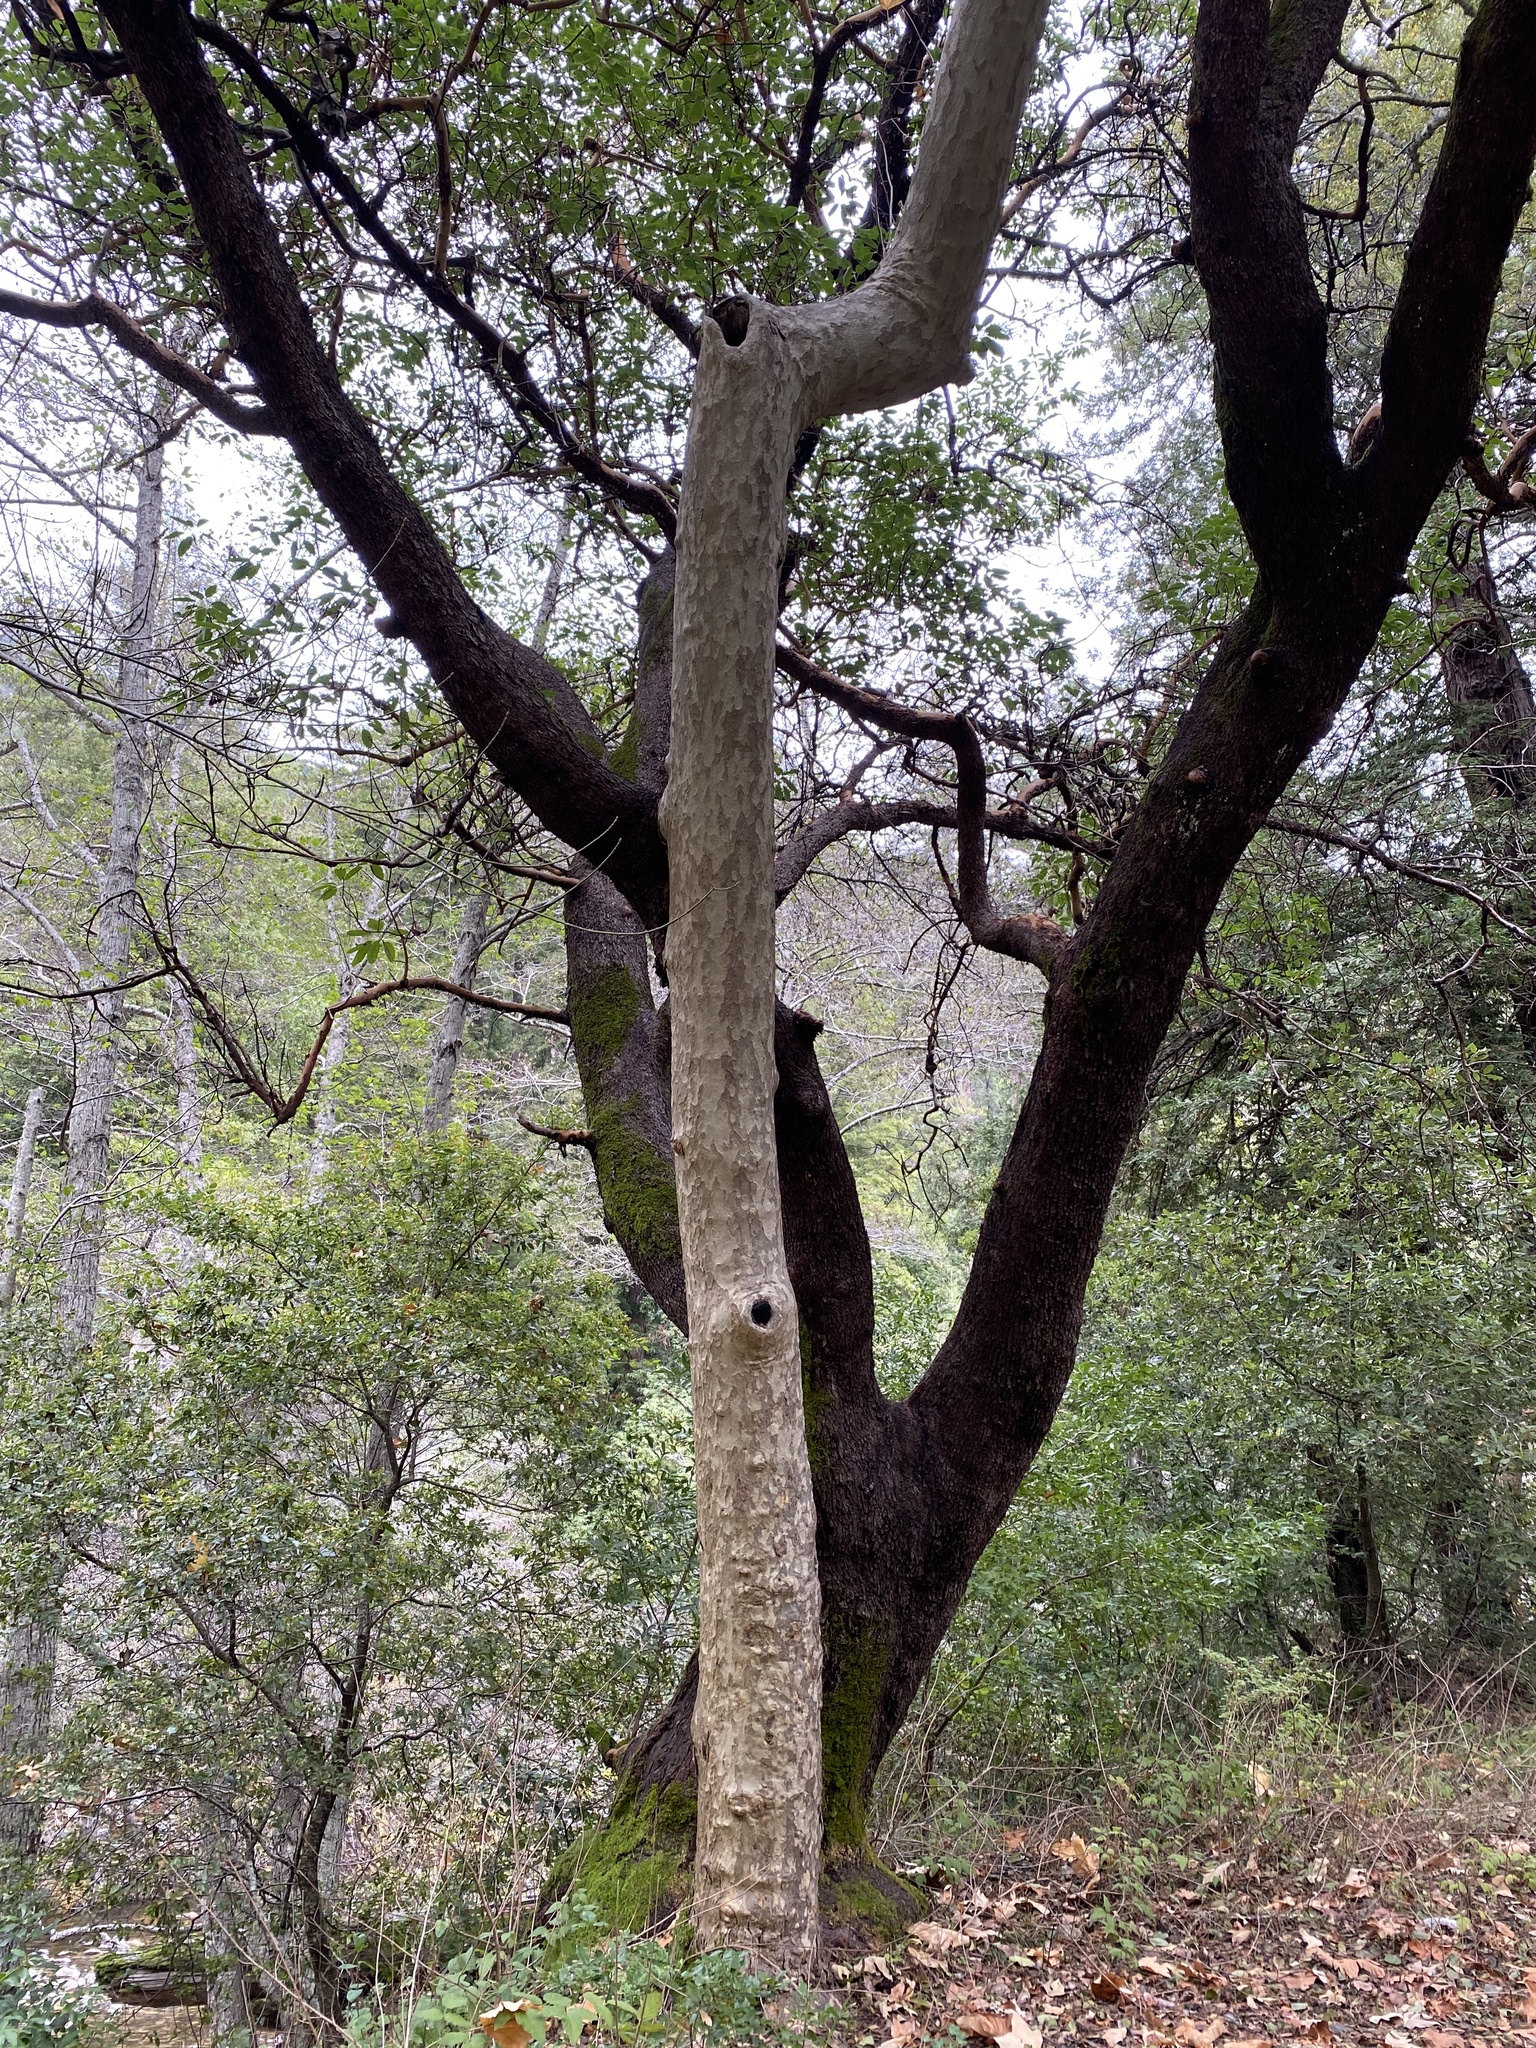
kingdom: Plantae
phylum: Tracheophyta
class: Magnoliopsida
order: Proteales
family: Platanaceae
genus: Platanus
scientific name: Platanus racemosa
